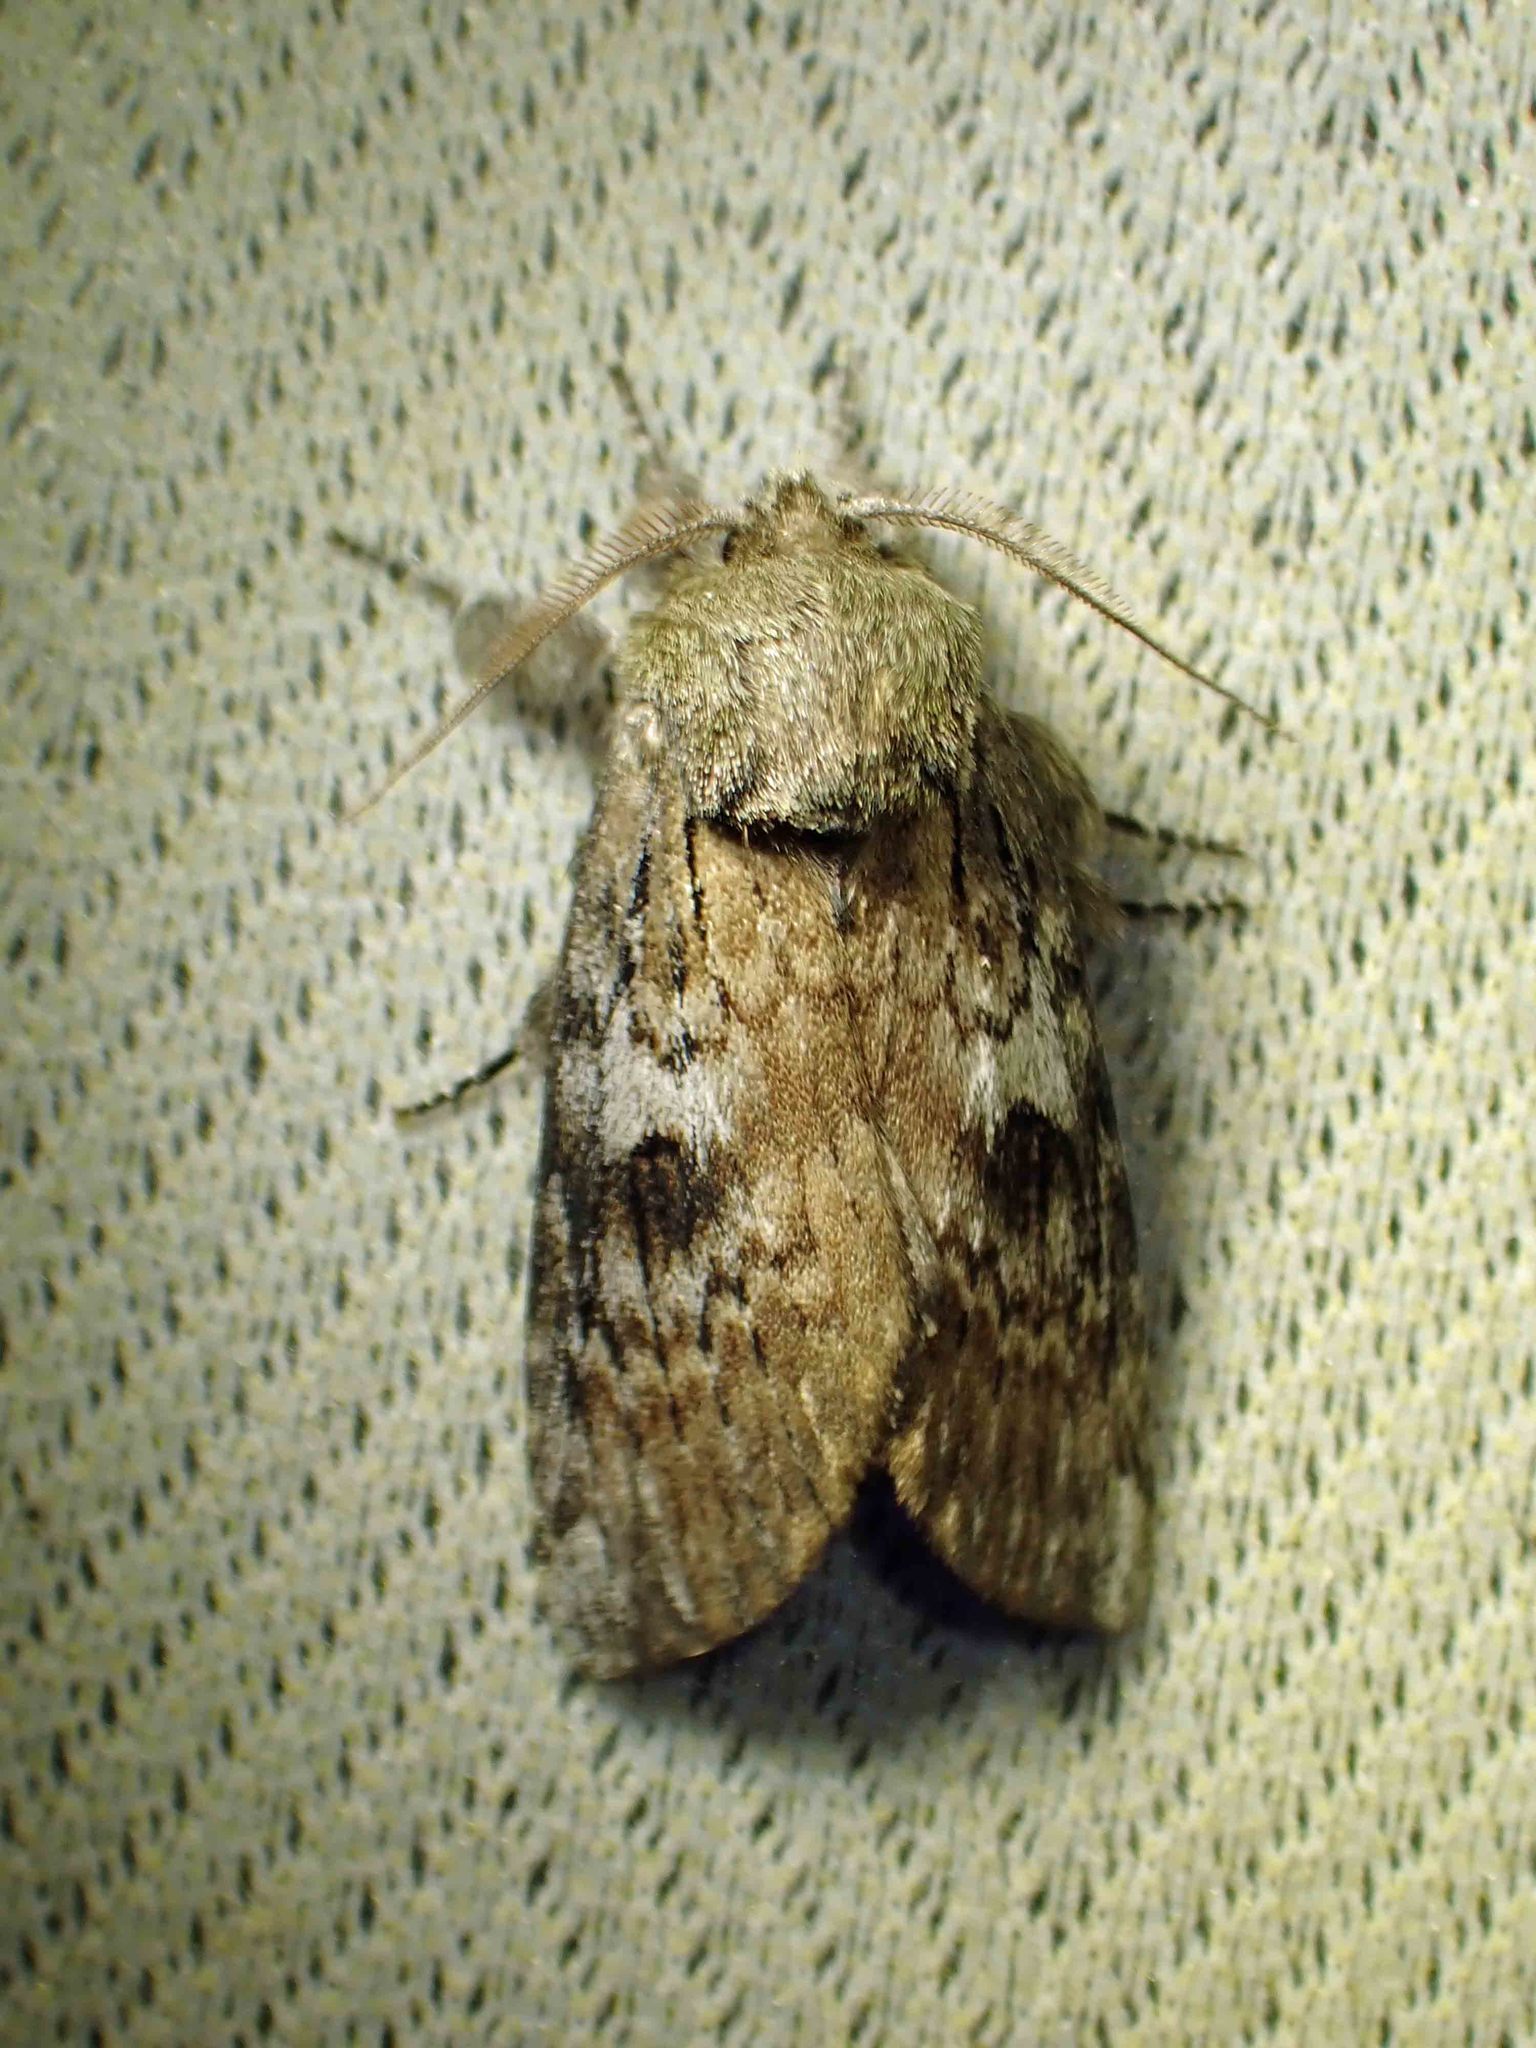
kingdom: Animalia
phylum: Arthropoda
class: Insecta
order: Lepidoptera
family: Notodontidae
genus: Schizura
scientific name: Schizura
